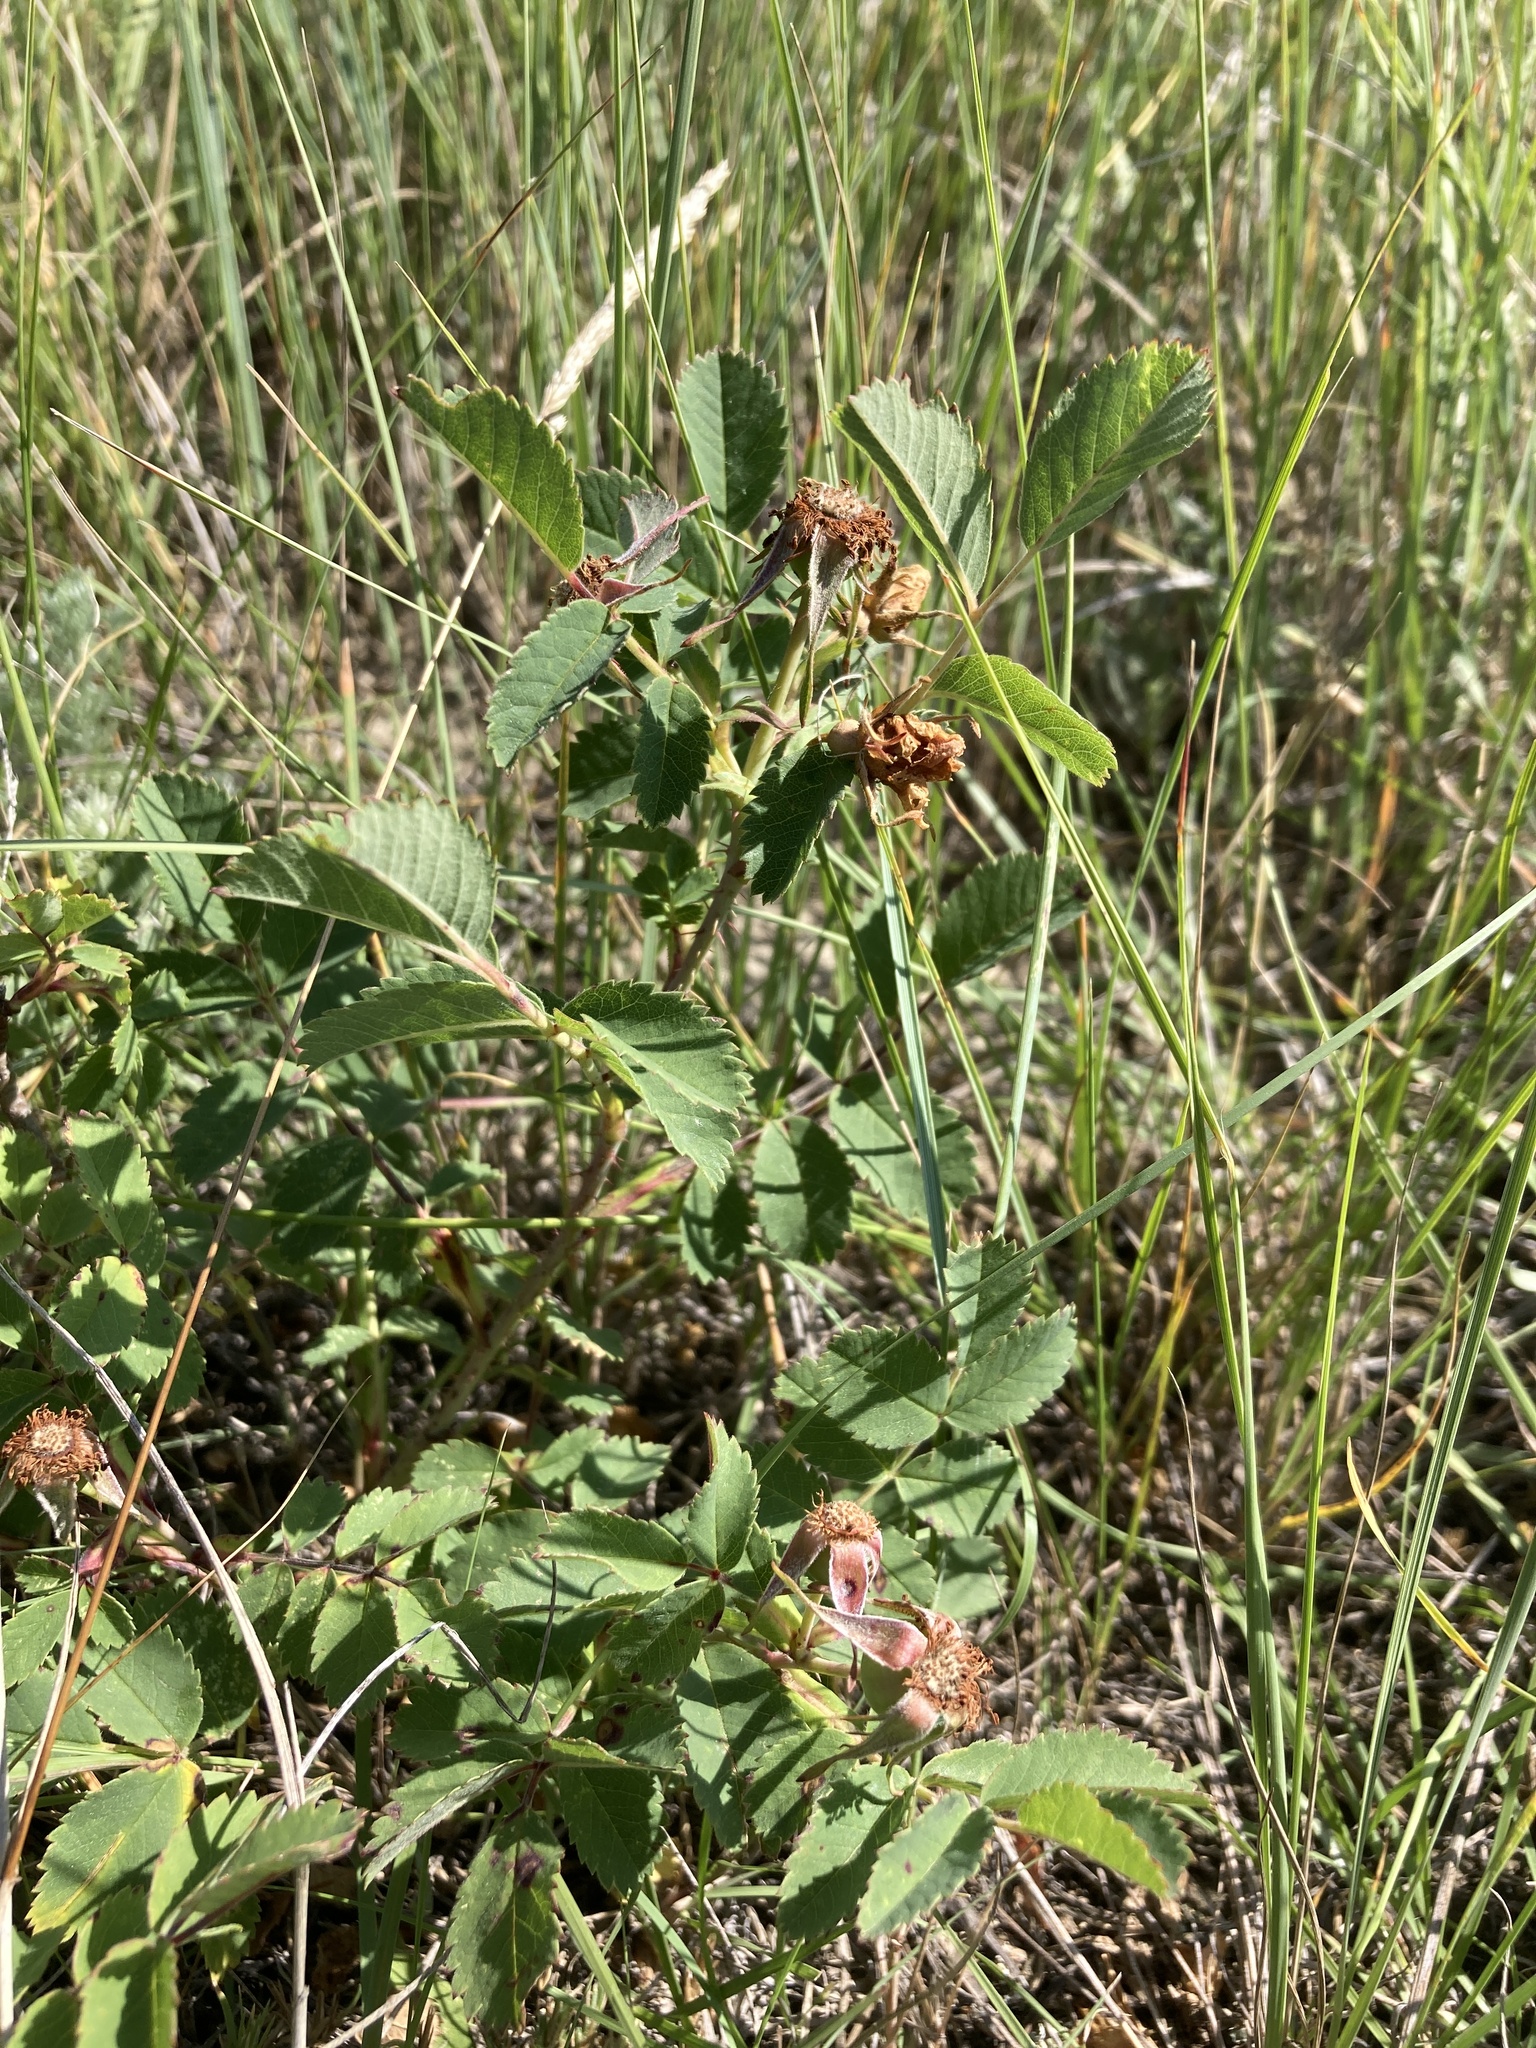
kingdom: Plantae
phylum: Tracheophyta
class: Magnoliopsida
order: Rosales
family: Rosaceae
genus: Rosa
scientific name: Rosa arkansana
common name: Prairie rose
